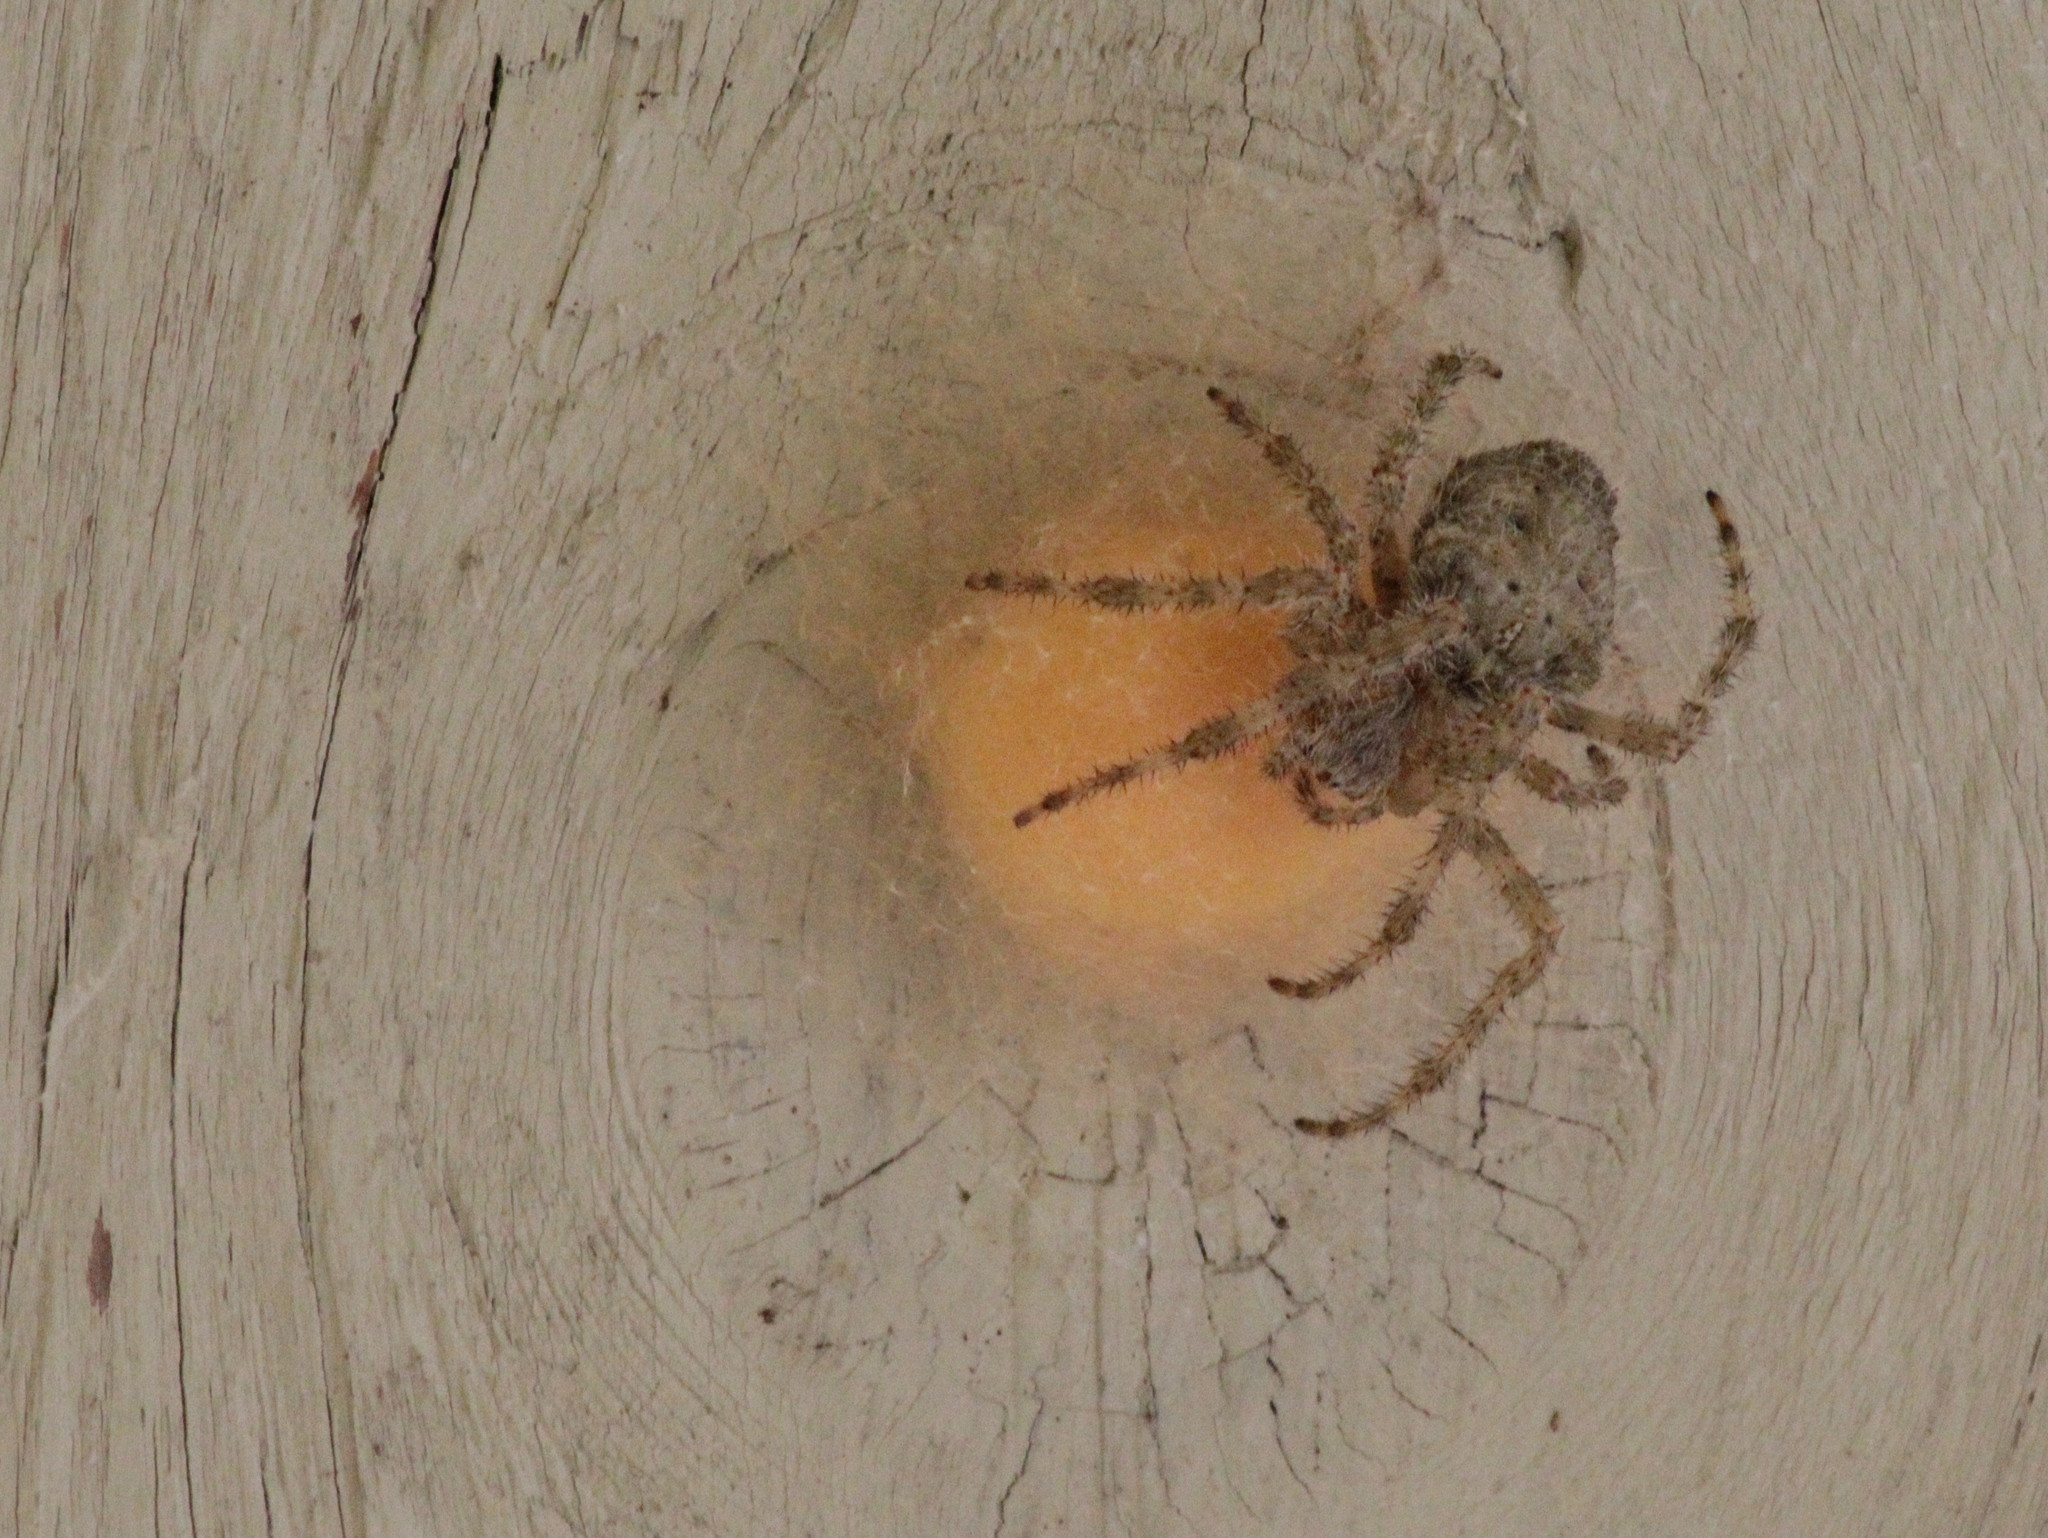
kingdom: Animalia
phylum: Arthropoda
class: Arachnida
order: Araneae
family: Araneidae
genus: Araneus
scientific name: Araneus cavaticus
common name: Barn orbweaver
